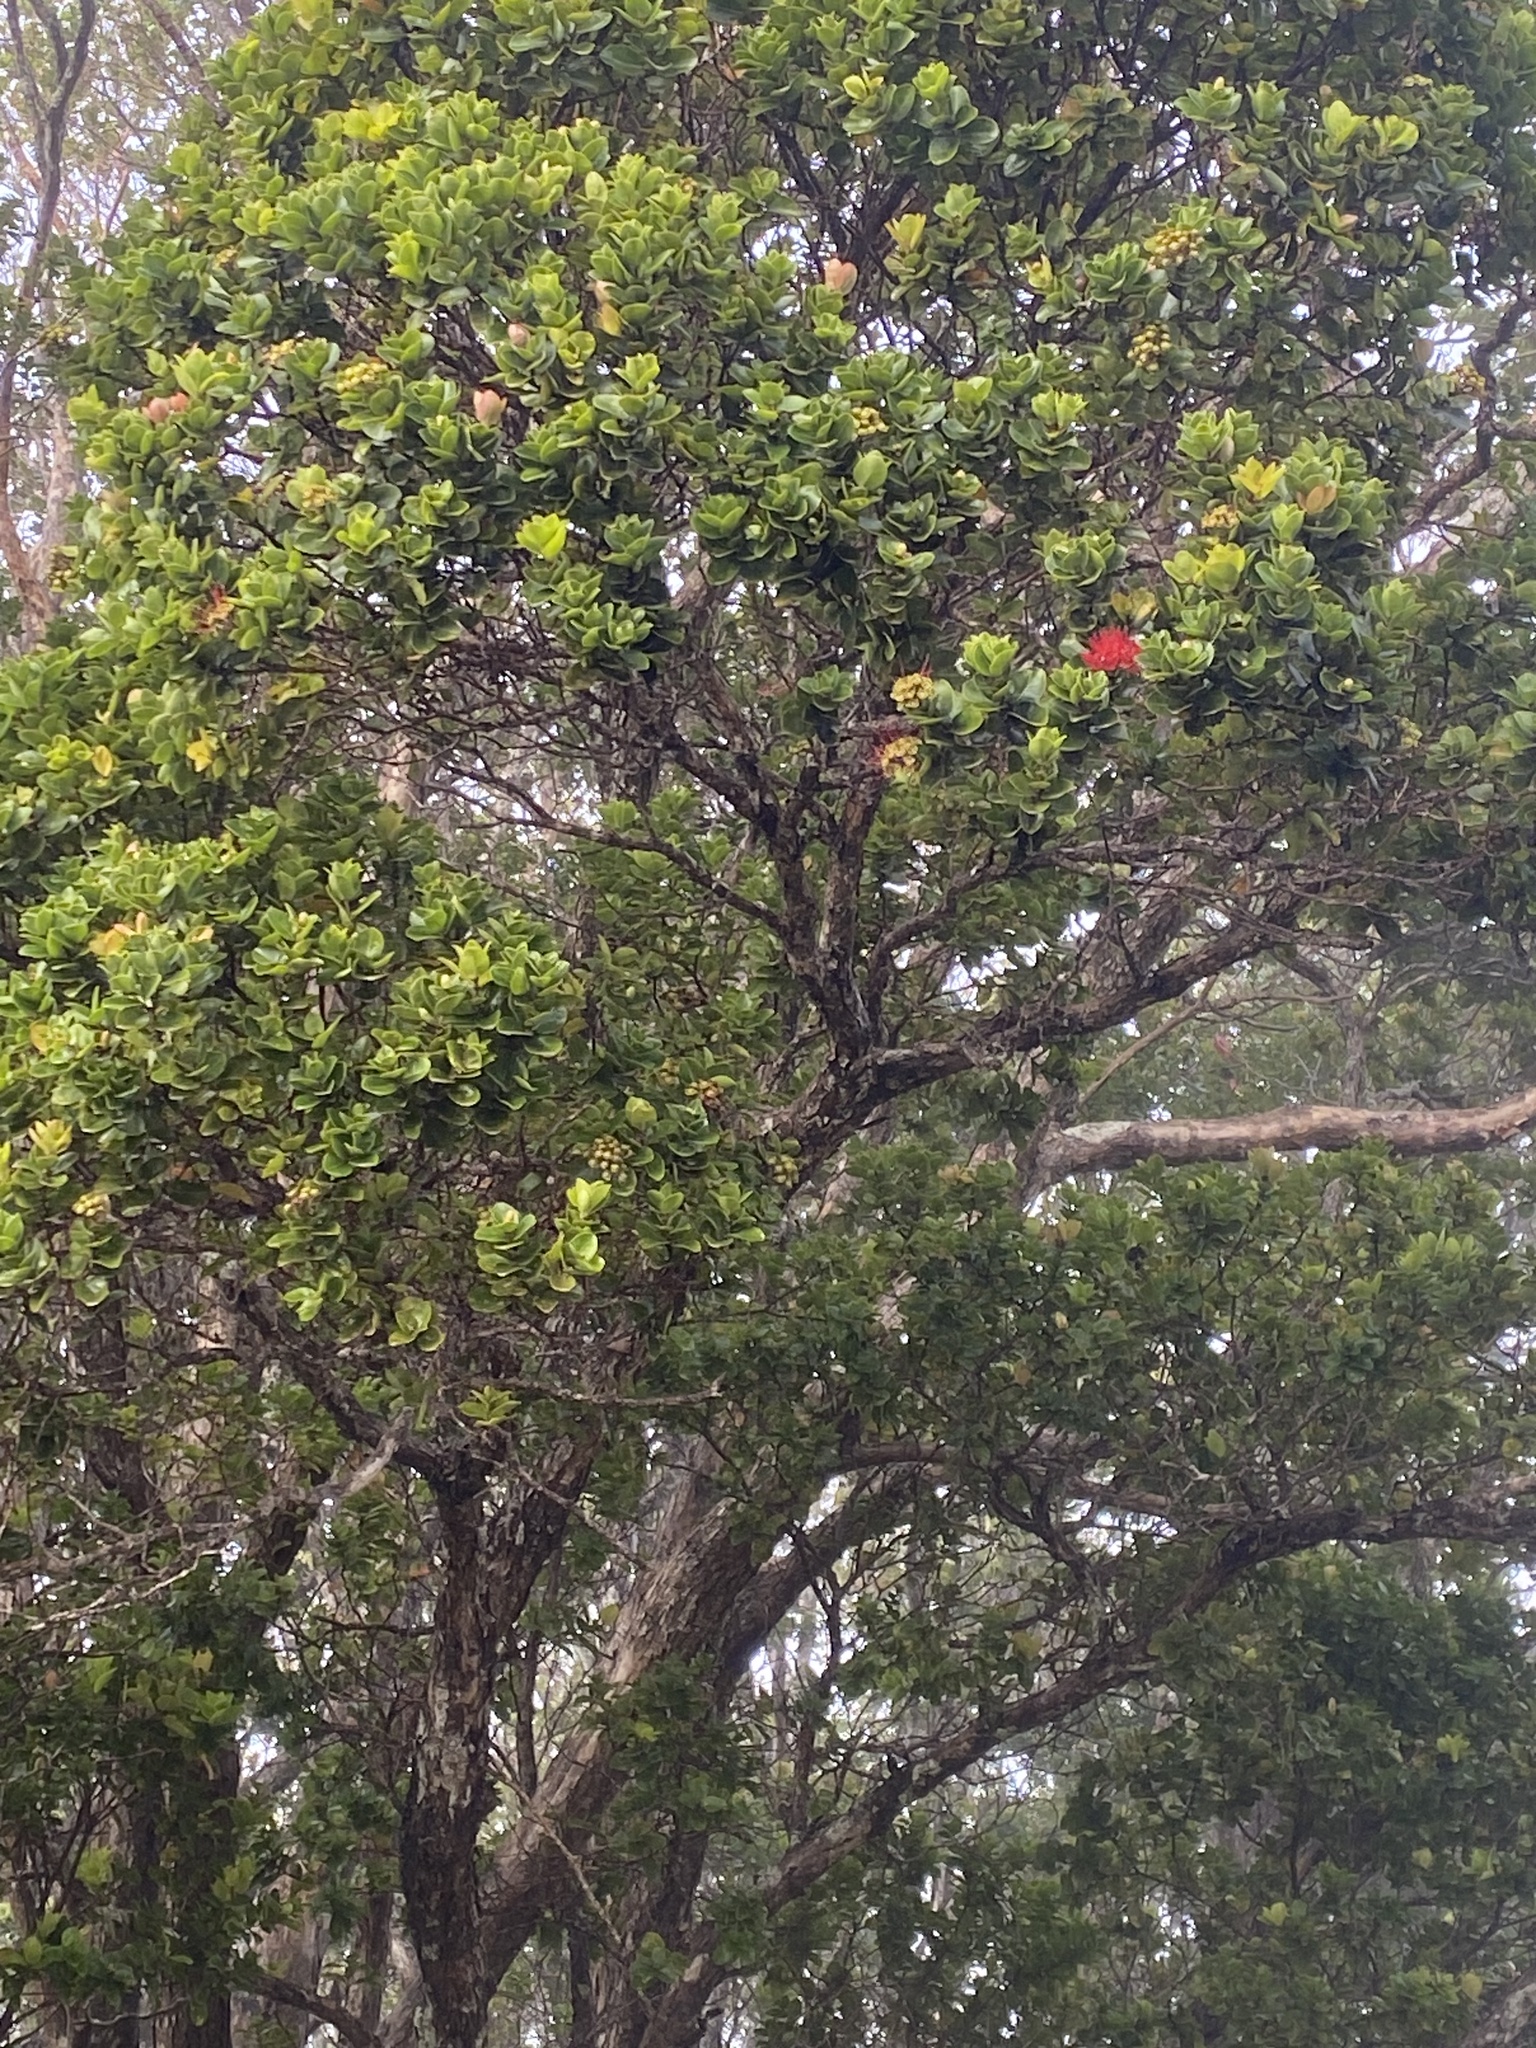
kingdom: Plantae
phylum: Tracheophyta
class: Magnoliopsida
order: Myrtales
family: Myrtaceae
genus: Metrosideros
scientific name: Metrosideros polymorpha
